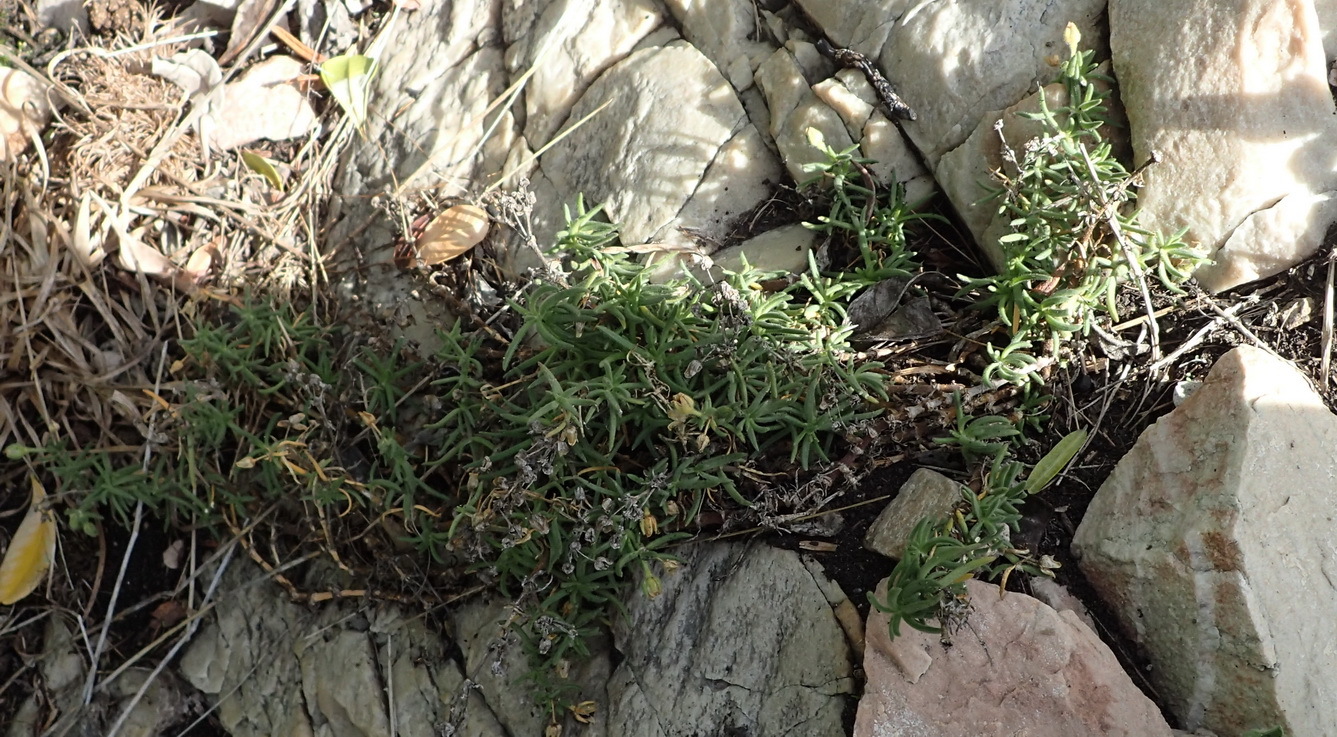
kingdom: Plantae
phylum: Tracheophyta
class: Magnoliopsida
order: Caryophyllales
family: Caryophyllaceae
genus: Spergularia
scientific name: Spergularia media
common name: Greater sea-spurrey
